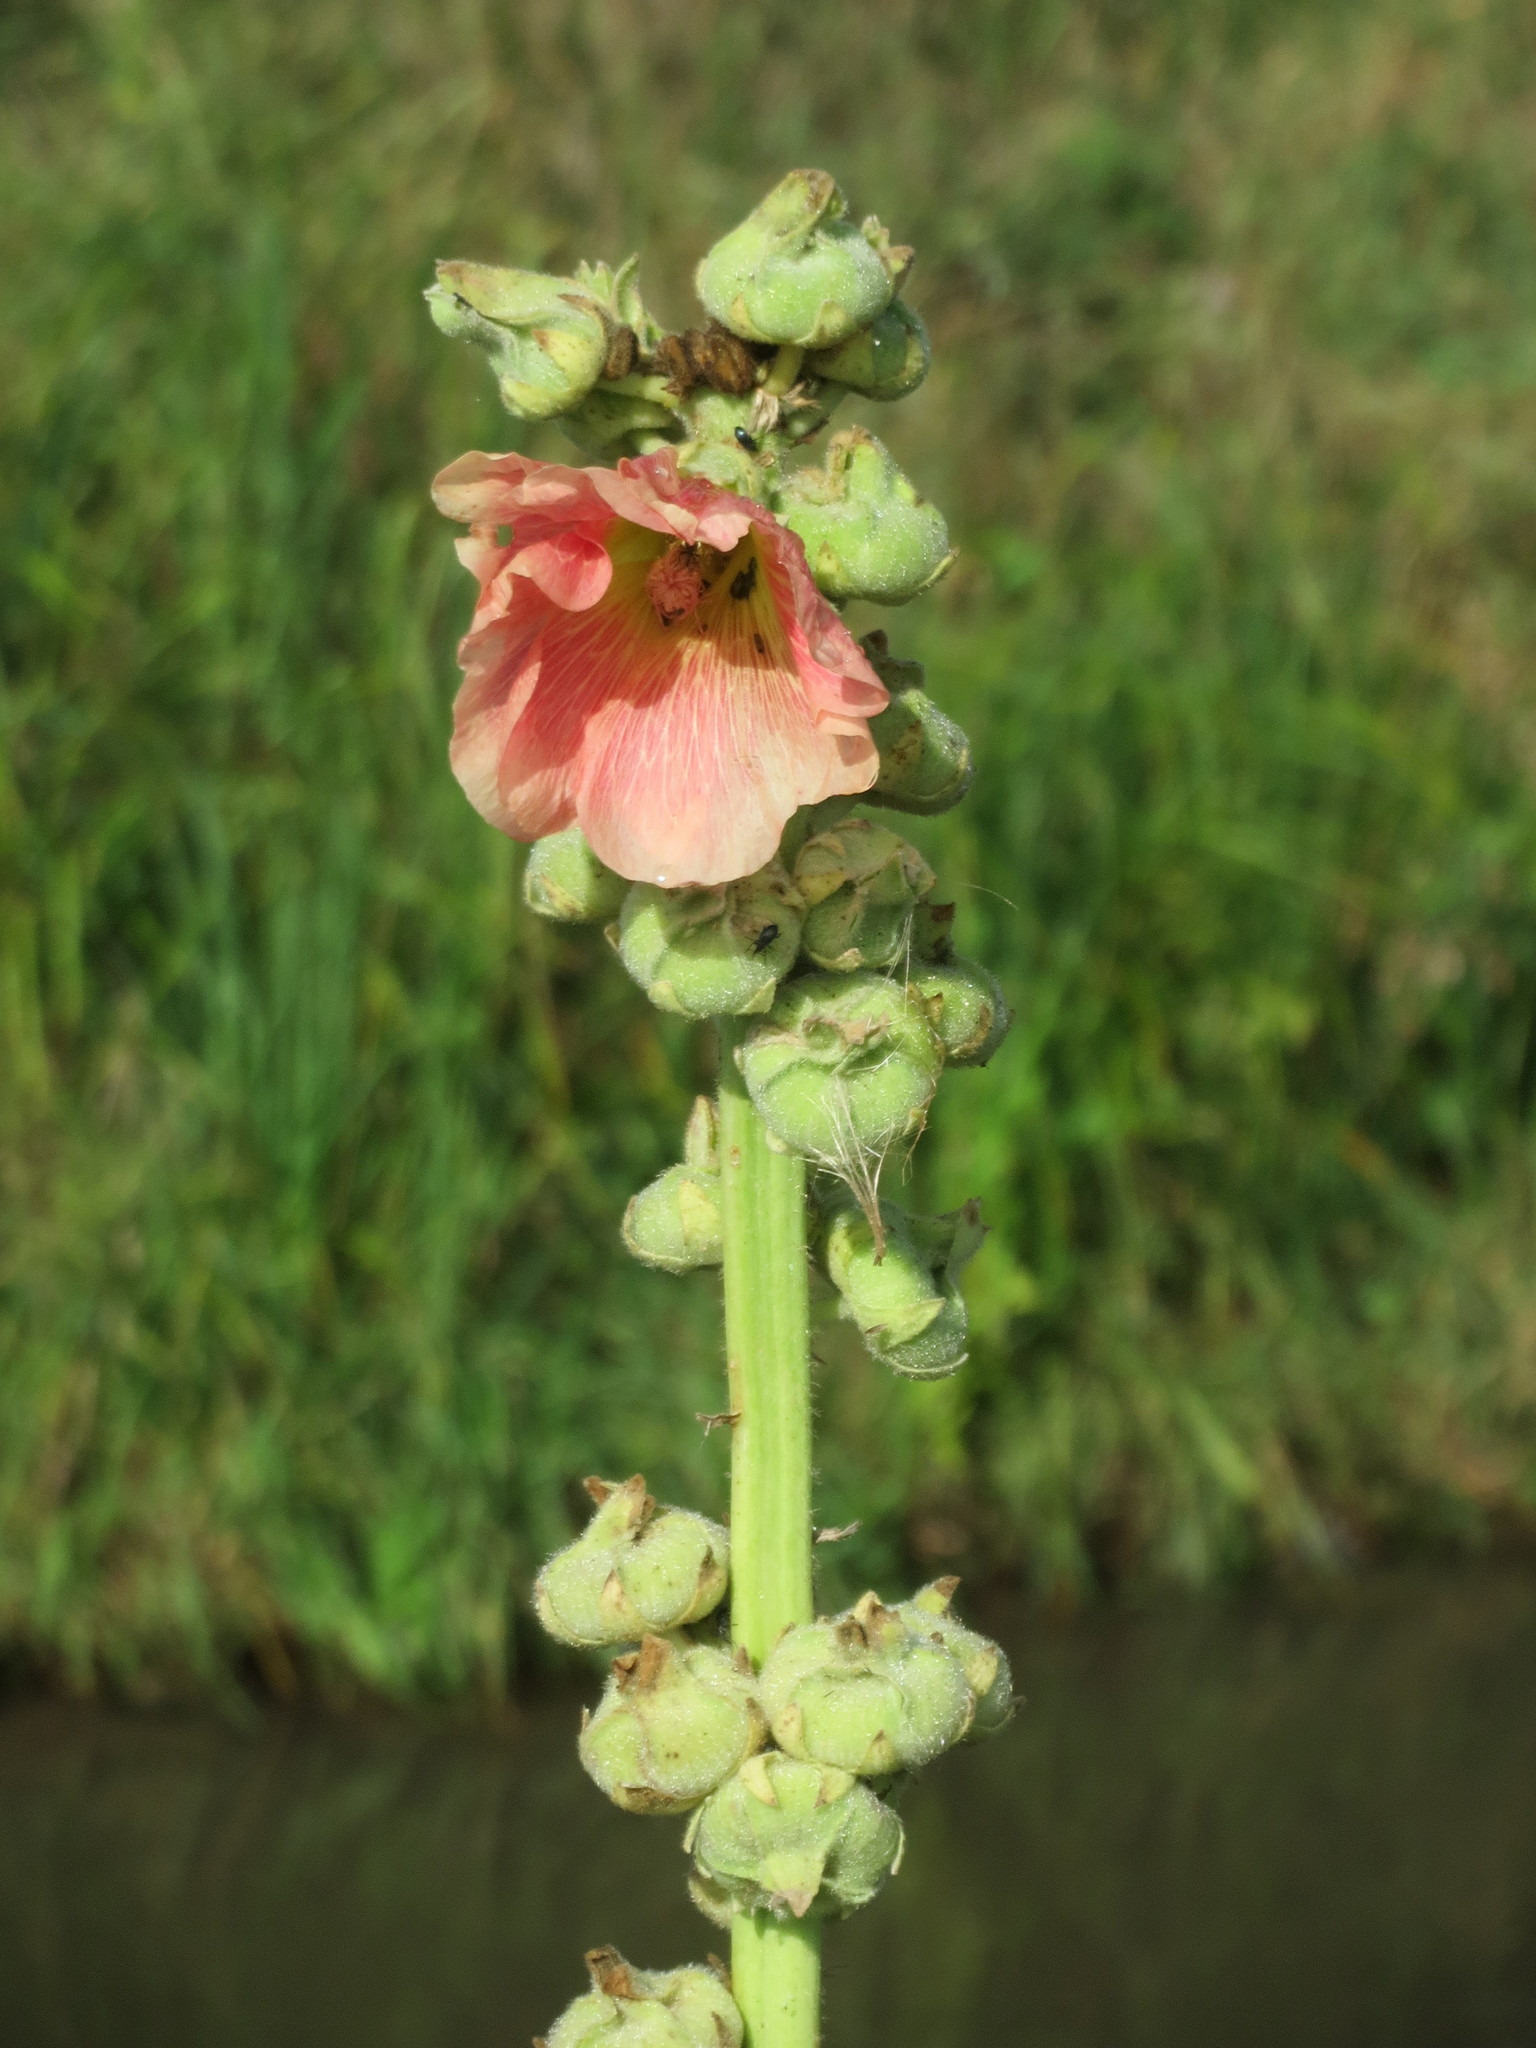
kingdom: Plantae
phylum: Tracheophyta
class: Magnoliopsida
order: Malvales
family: Malvaceae
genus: Alcea
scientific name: Alcea rosea
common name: Hollyhock
